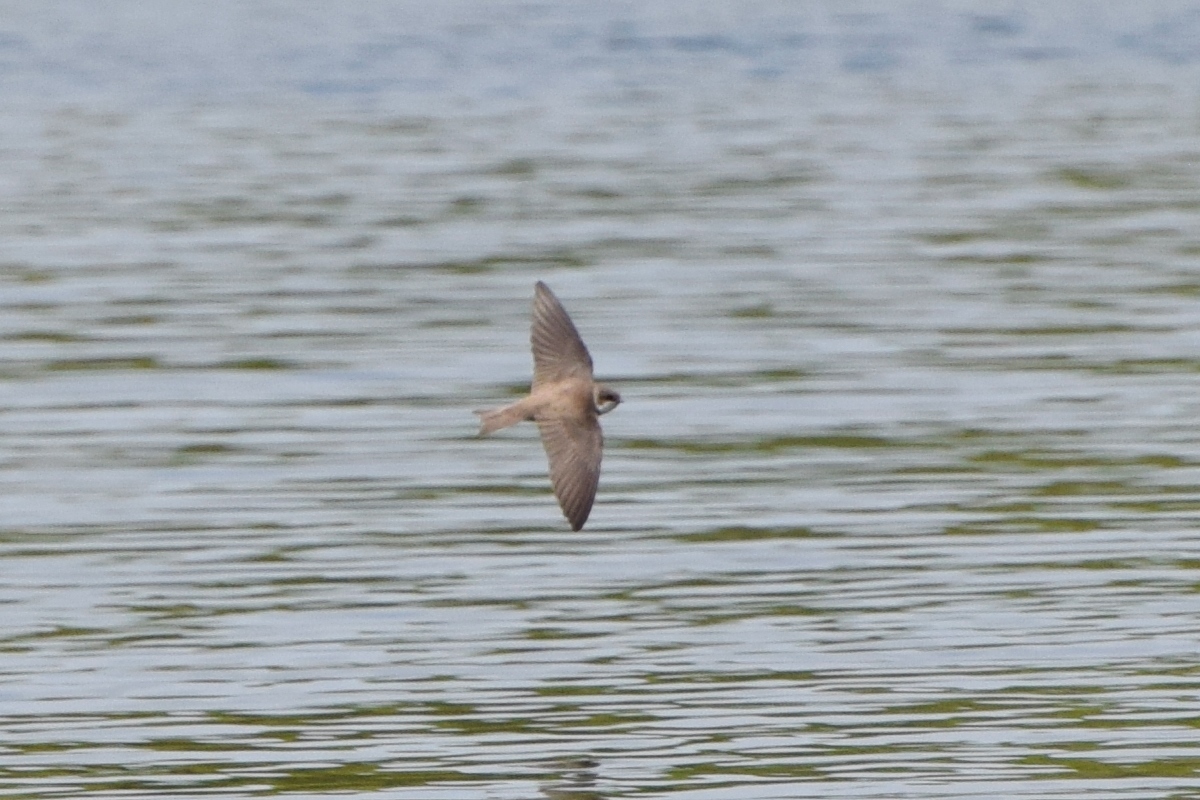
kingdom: Animalia
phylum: Chordata
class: Aves
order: Passeriformes
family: Hirundinidae
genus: Riparia
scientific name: Riparia riparia
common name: Sand martin
